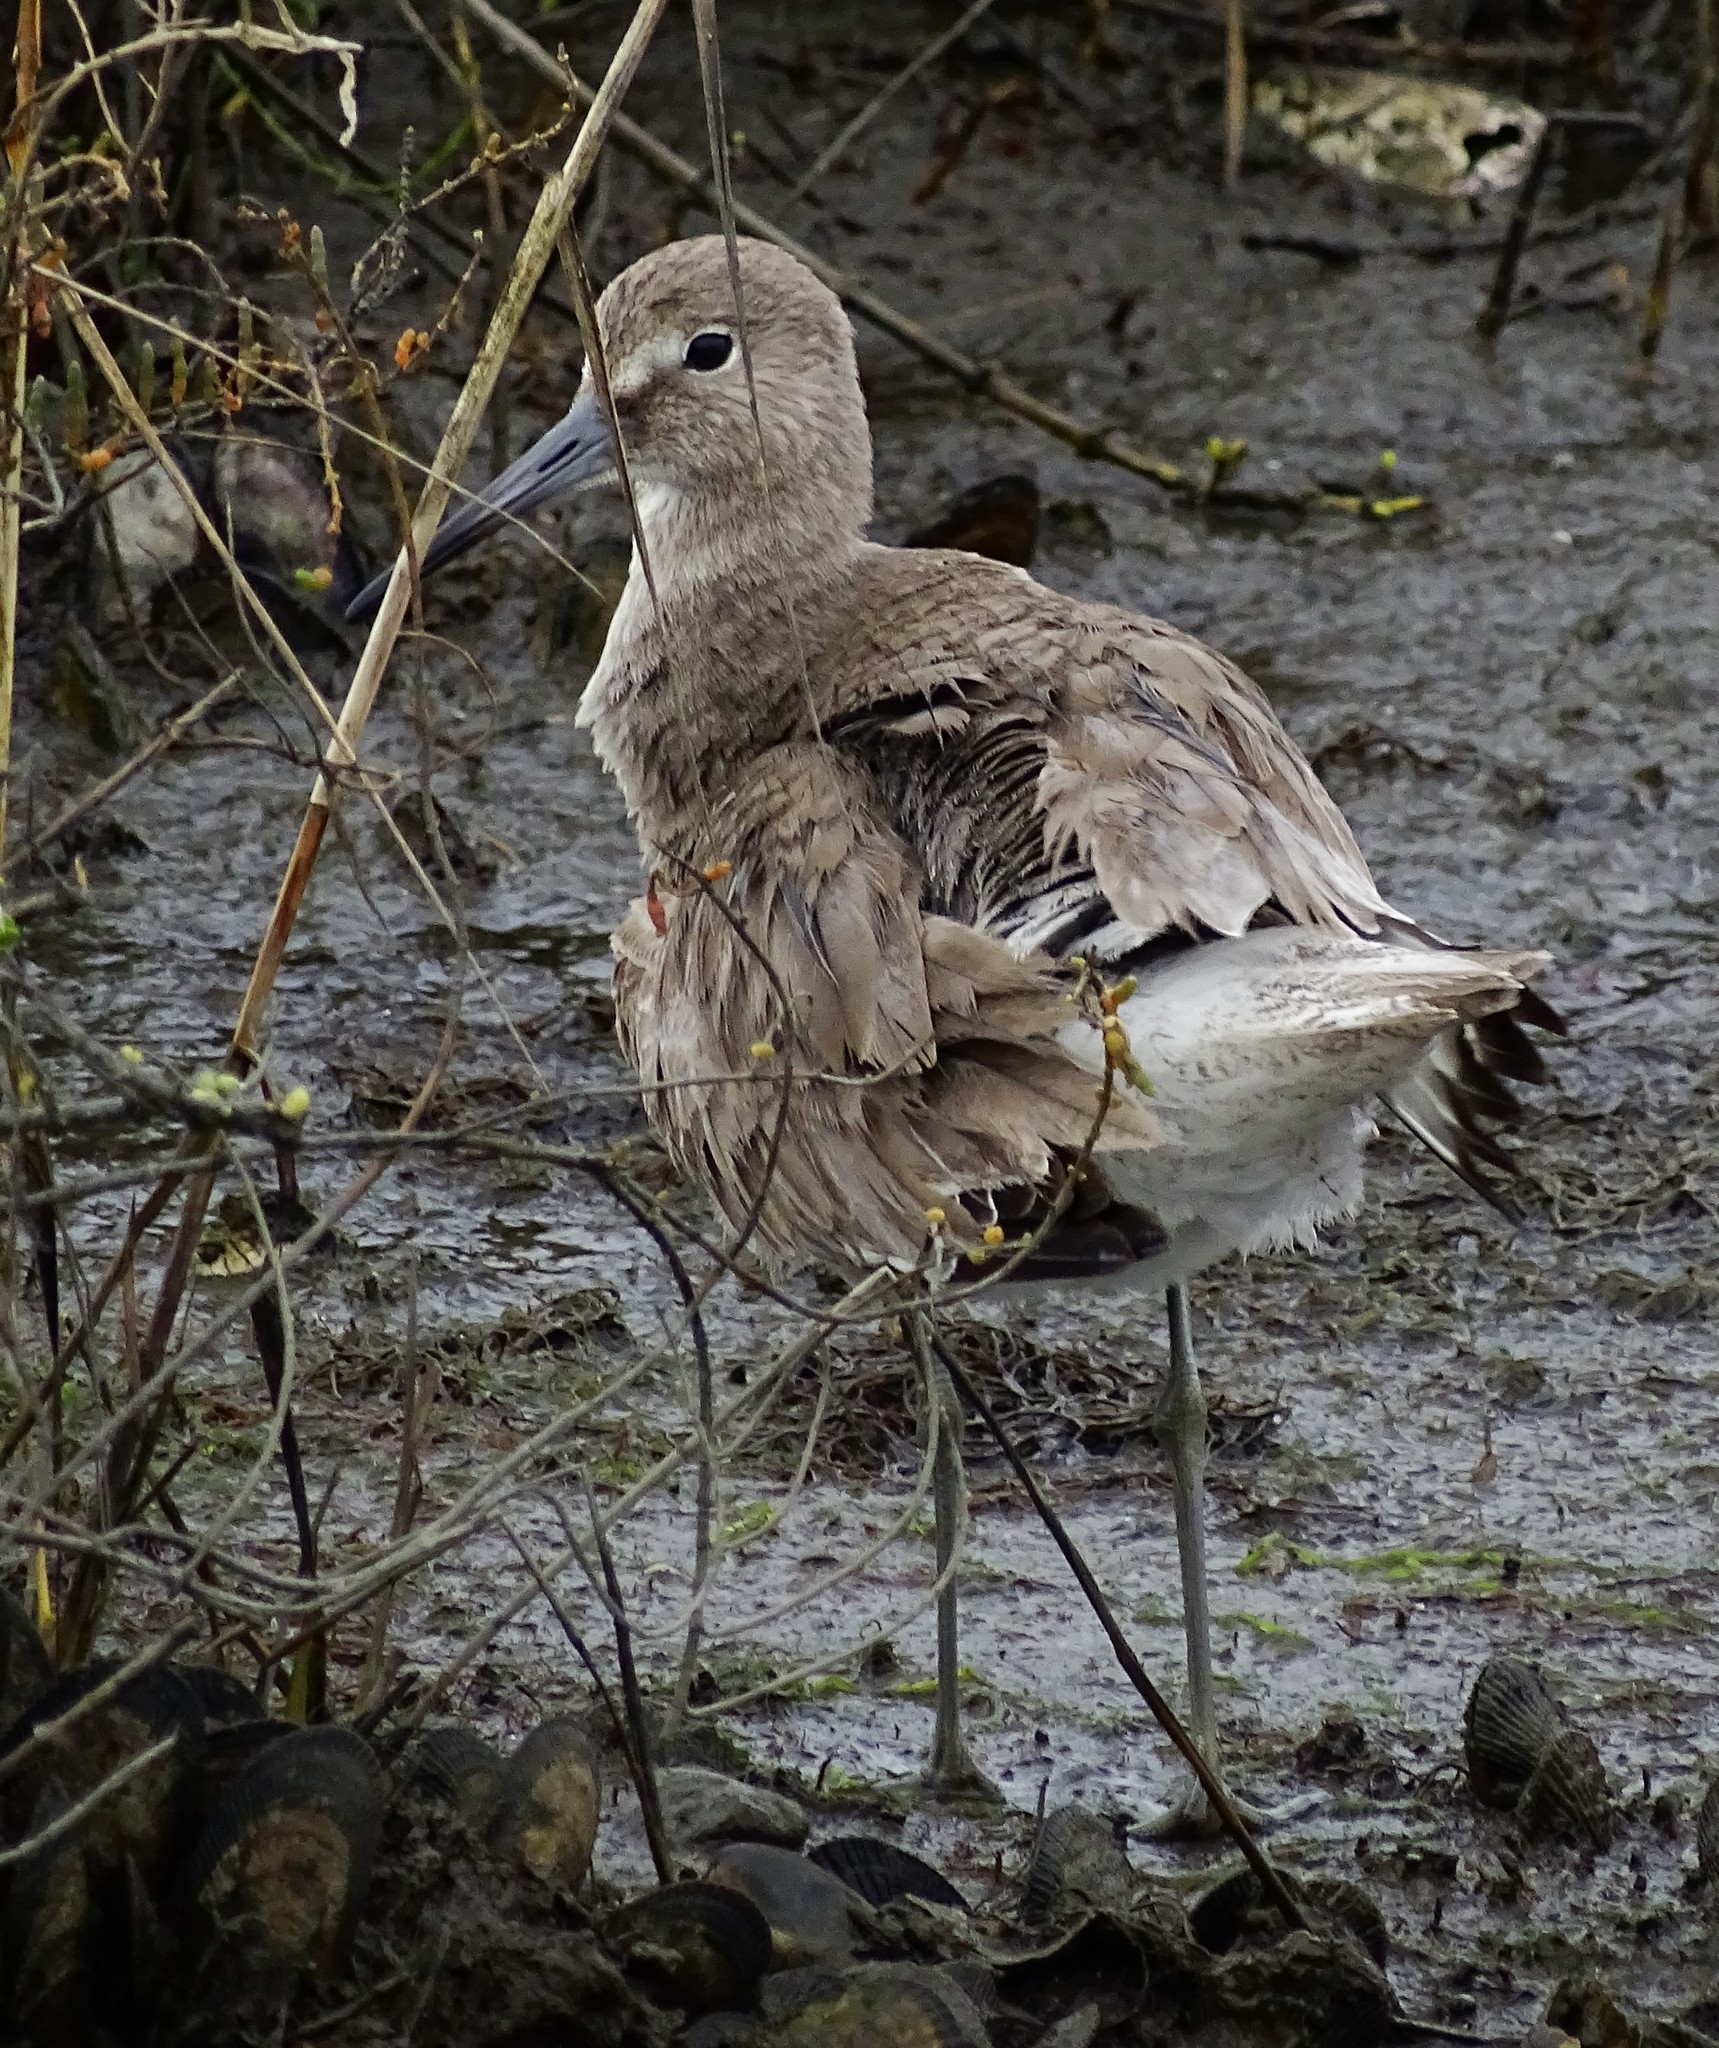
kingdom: Animalia
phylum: Chordata
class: Aves
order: Charadriiformes
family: Scolopacidae
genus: Tringa
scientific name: Tringa semipalmata
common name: Willet
